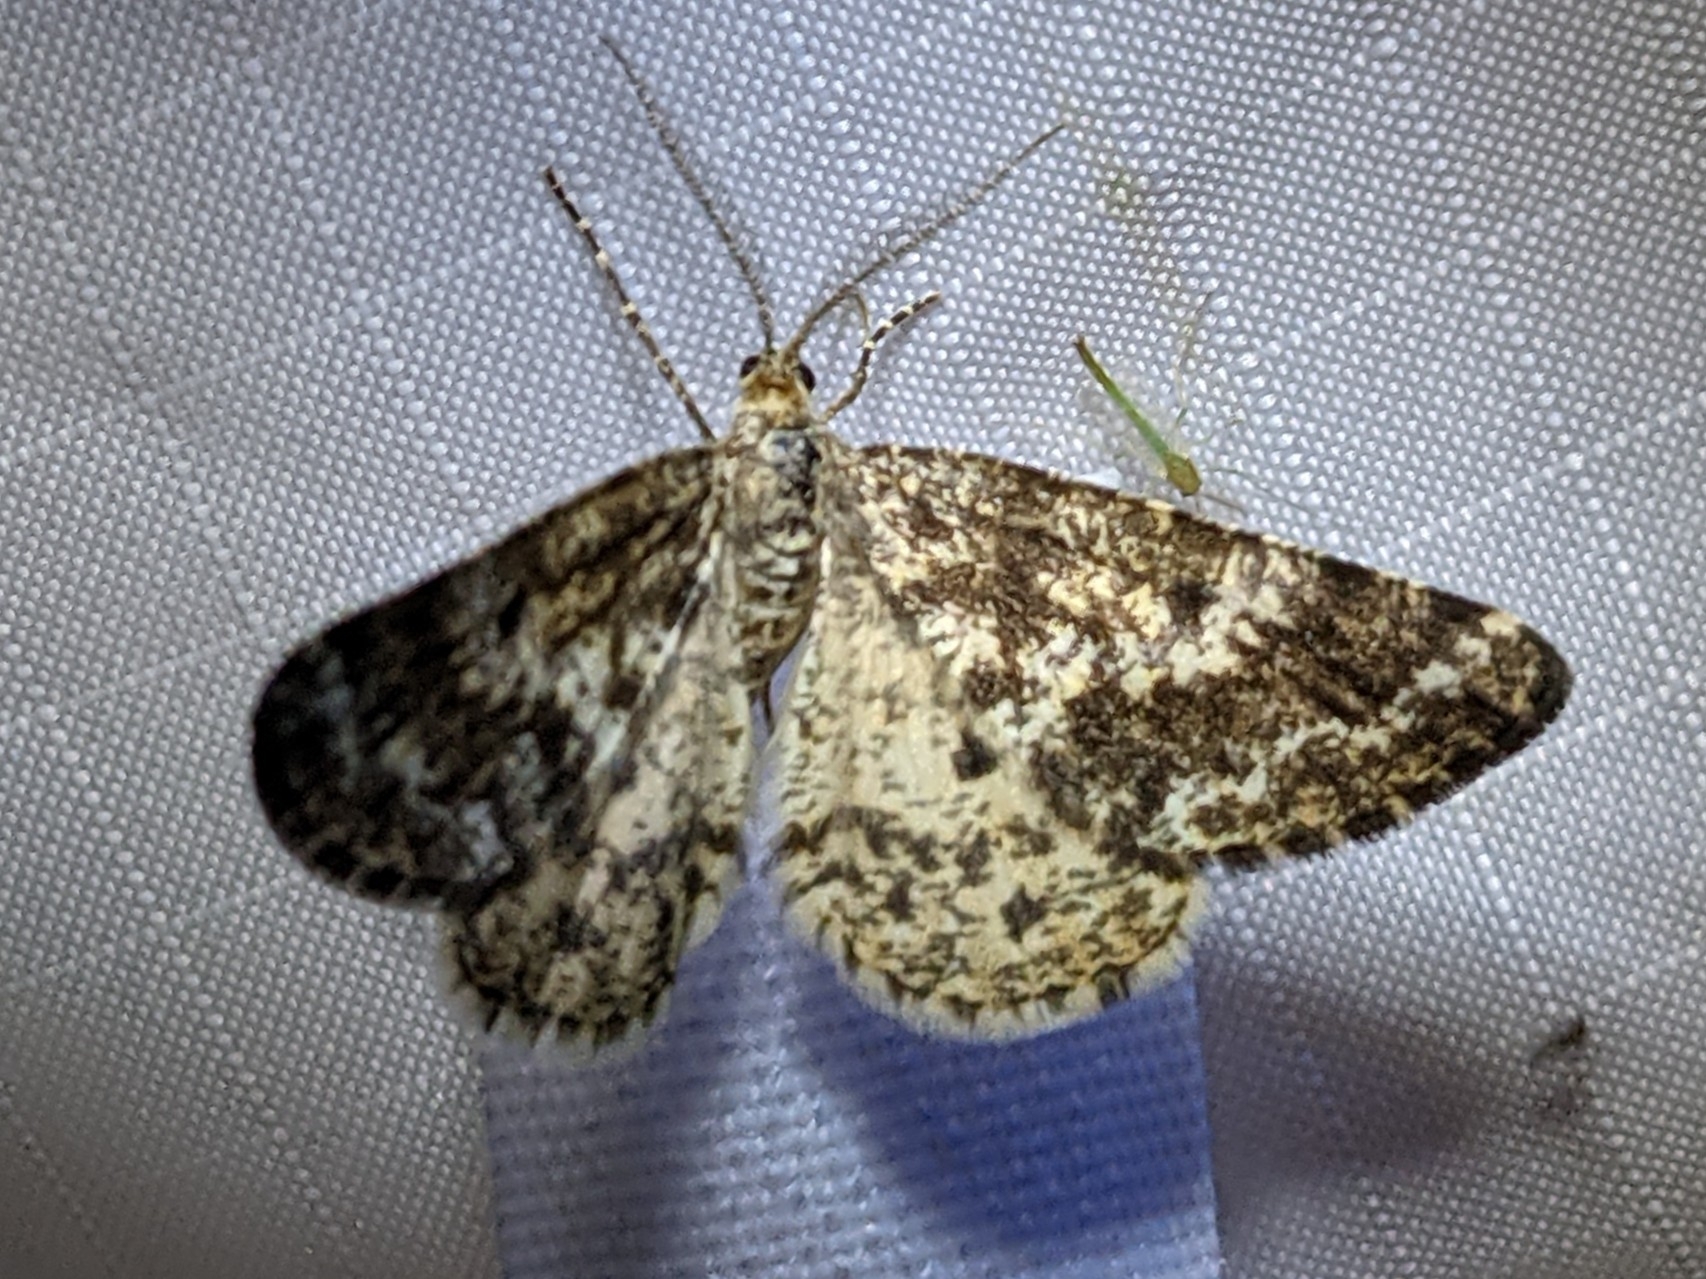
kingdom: Animalia
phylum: Arthropoda
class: Insecta
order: Lepidoptera
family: Geometridae
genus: Eufidonia
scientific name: Eufidonia notataria
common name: Powder moth
